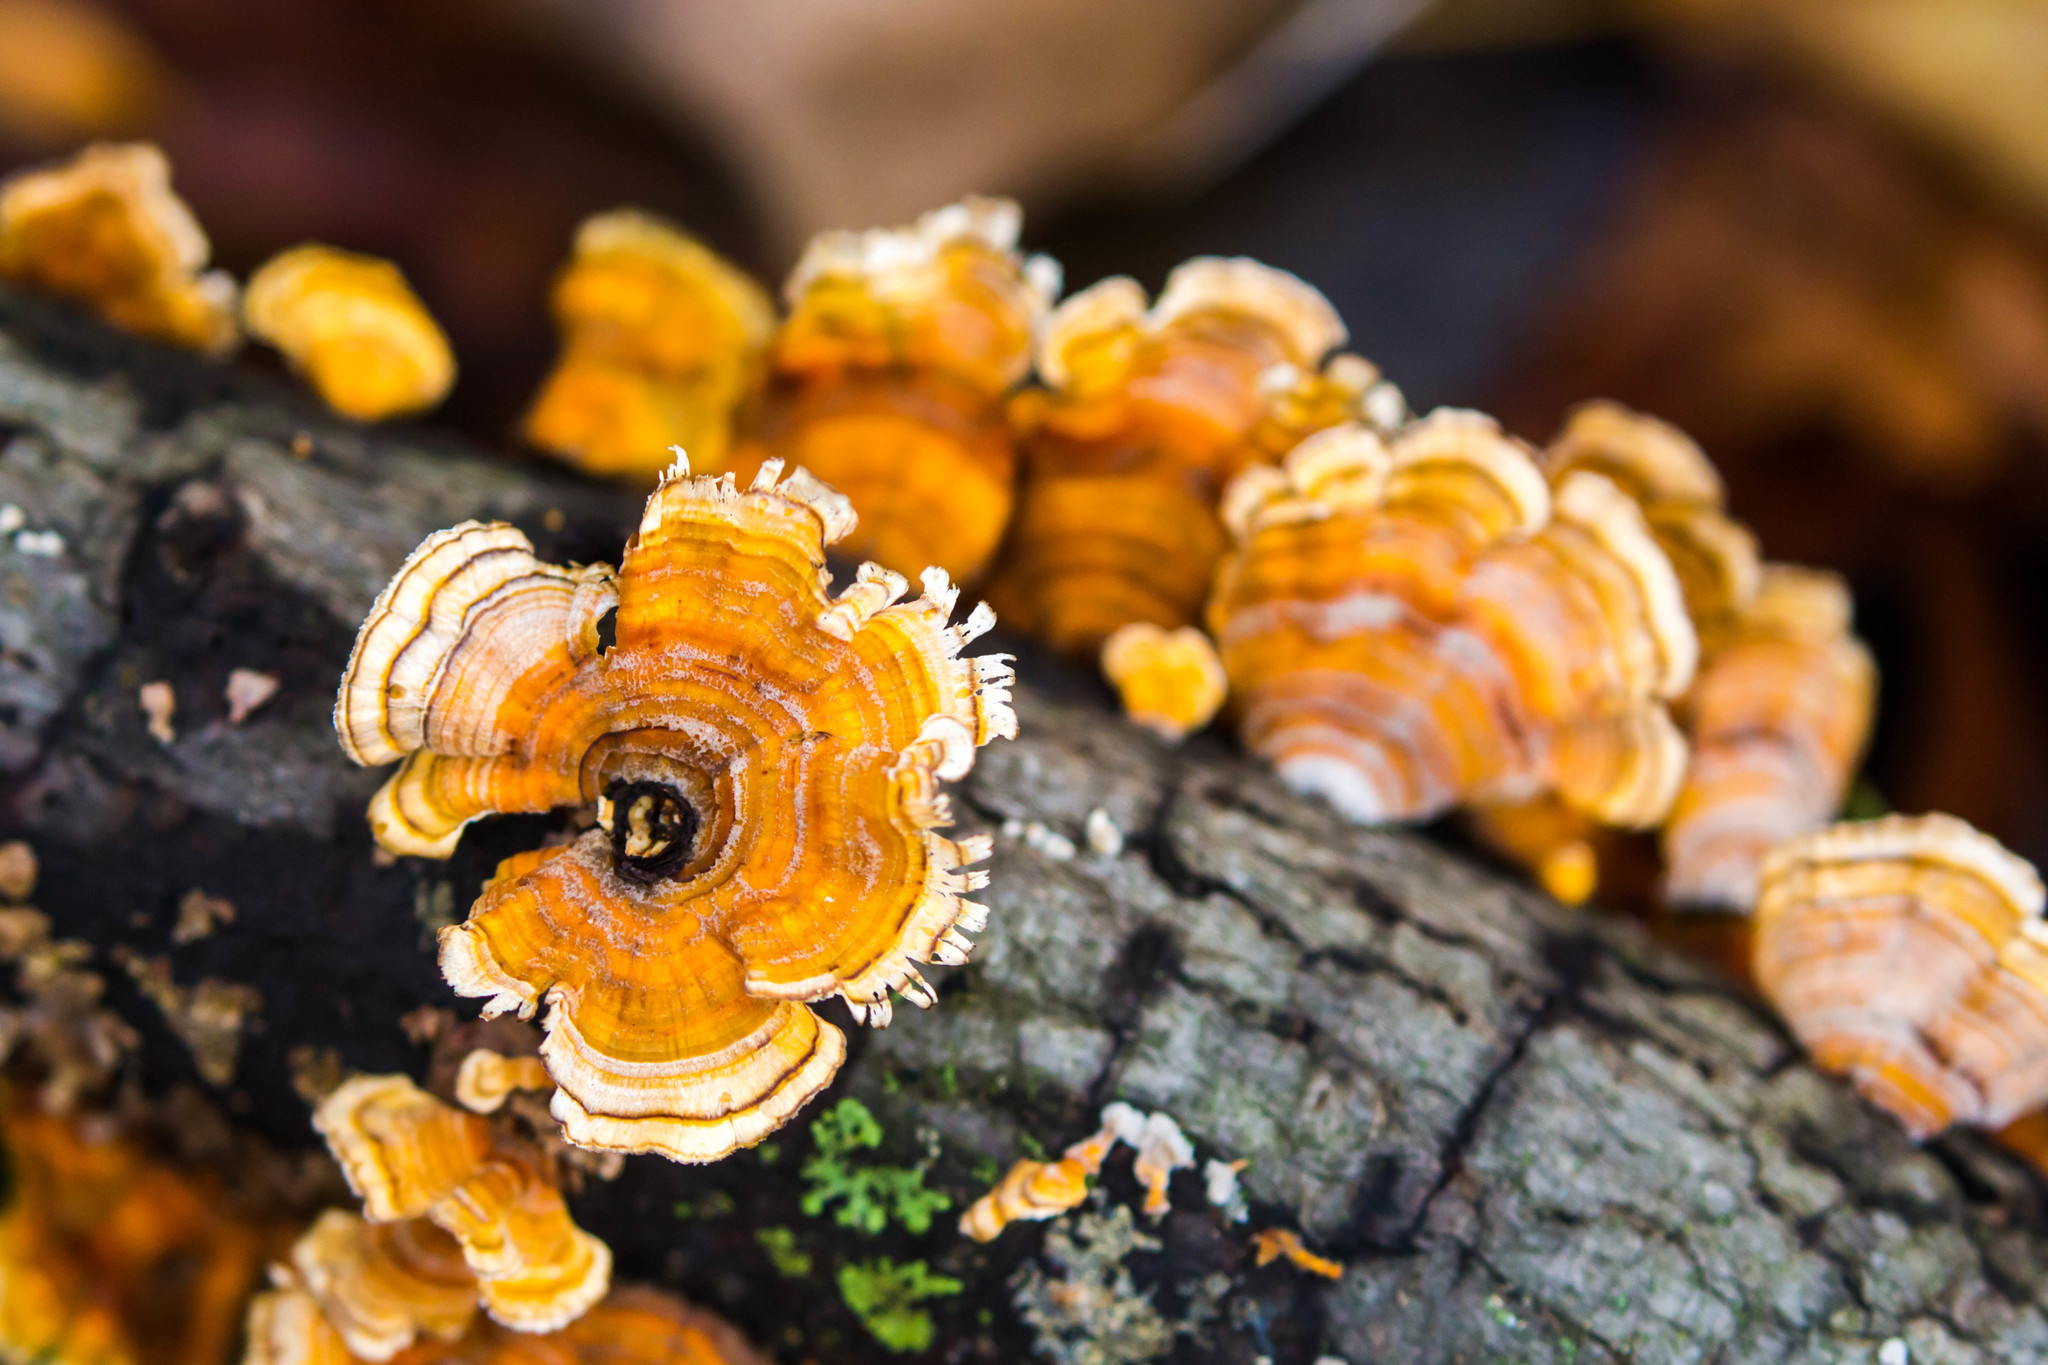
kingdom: Fungi
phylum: Basidiomycota
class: Agaricomycetes
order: Russulales
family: Stereaceae
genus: Stereum
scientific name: Stereum complicatum
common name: Crowded parchment
